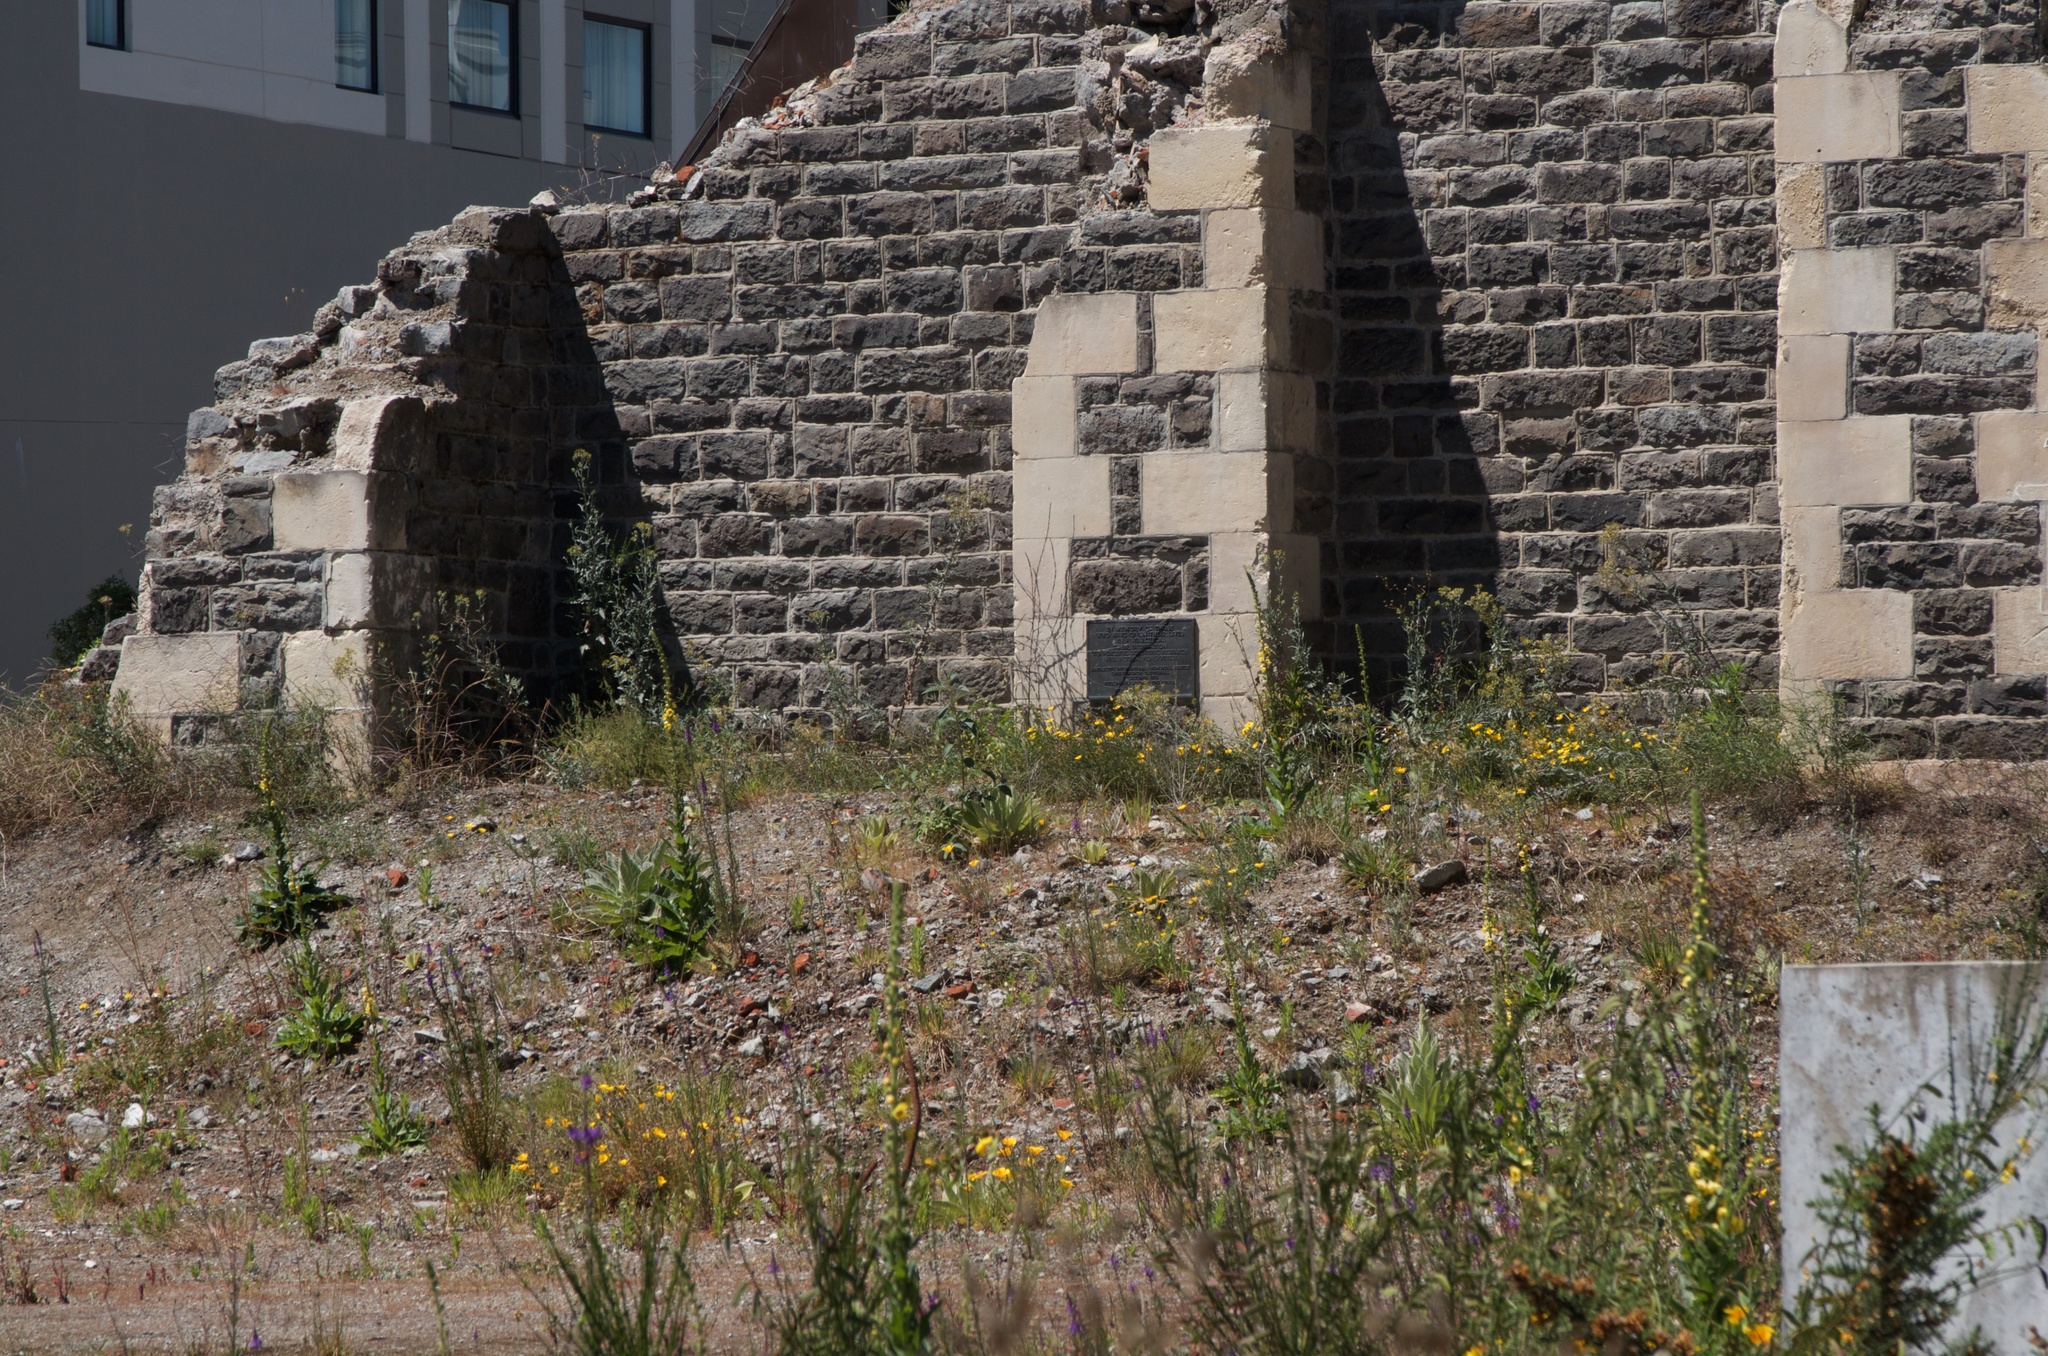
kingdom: Plantae
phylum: Tracheophyta
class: Magnoliopsida
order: Ranunculales
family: Papaveraceae
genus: Eschscholzia
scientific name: Eschscholzia californica
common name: California poppy
